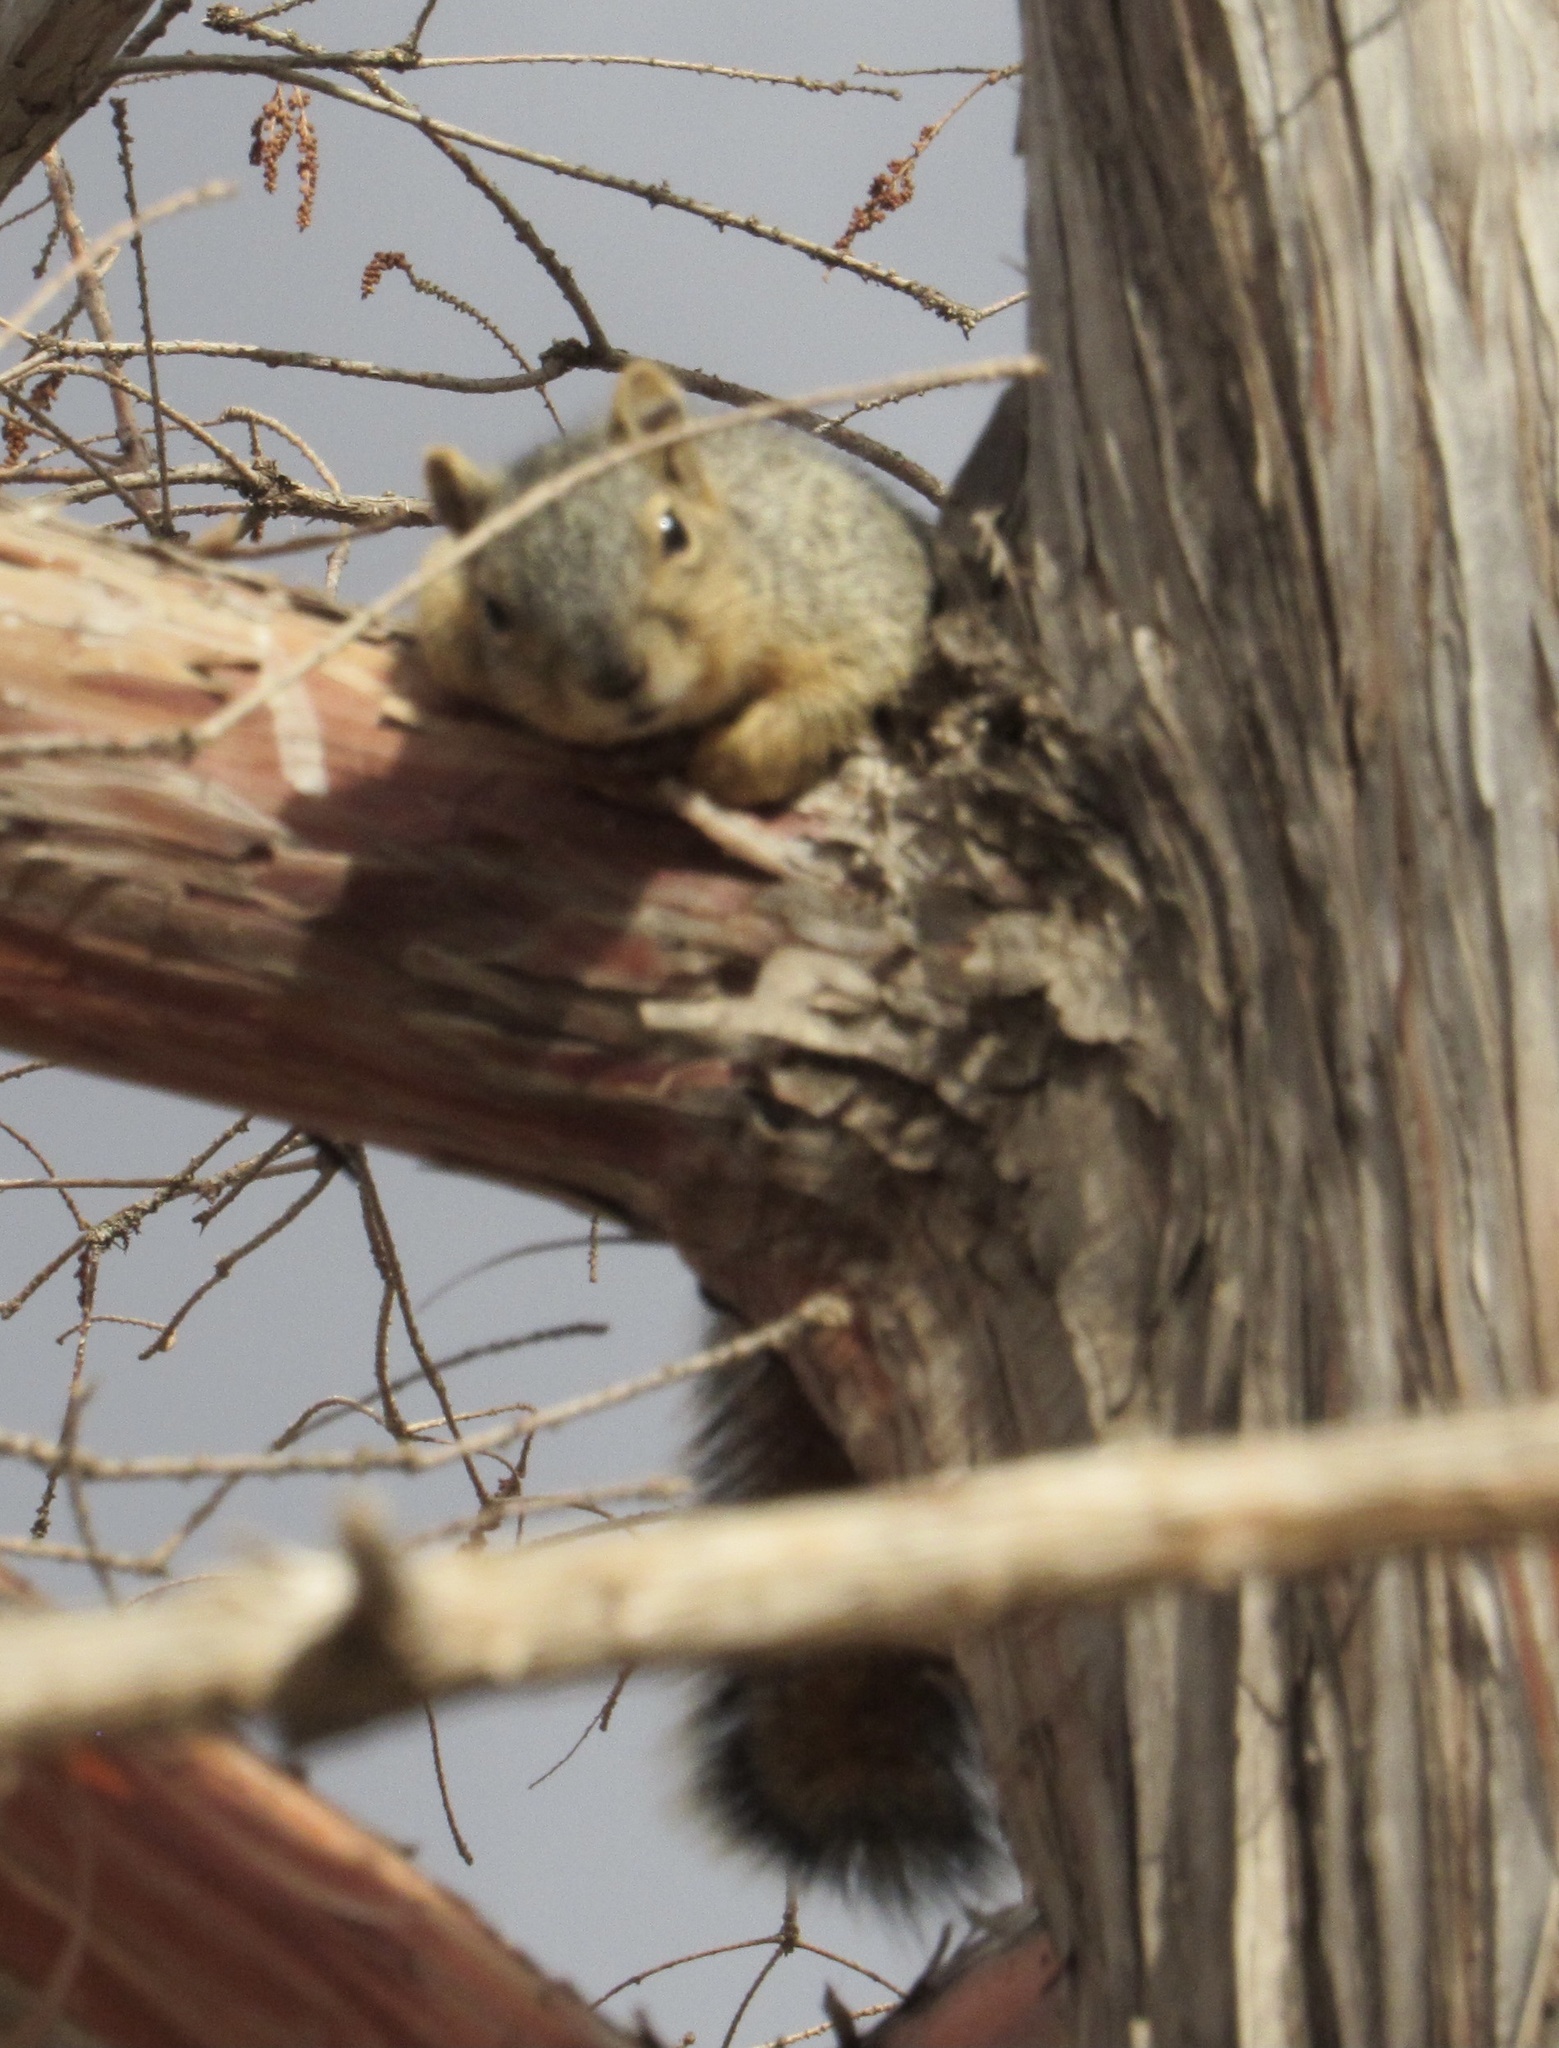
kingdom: Animalia
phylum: Chordata
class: Mammalia
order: Rodentia
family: Sciuridae
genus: Sciurus
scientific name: Sciurus niger
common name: Fox squirrel
